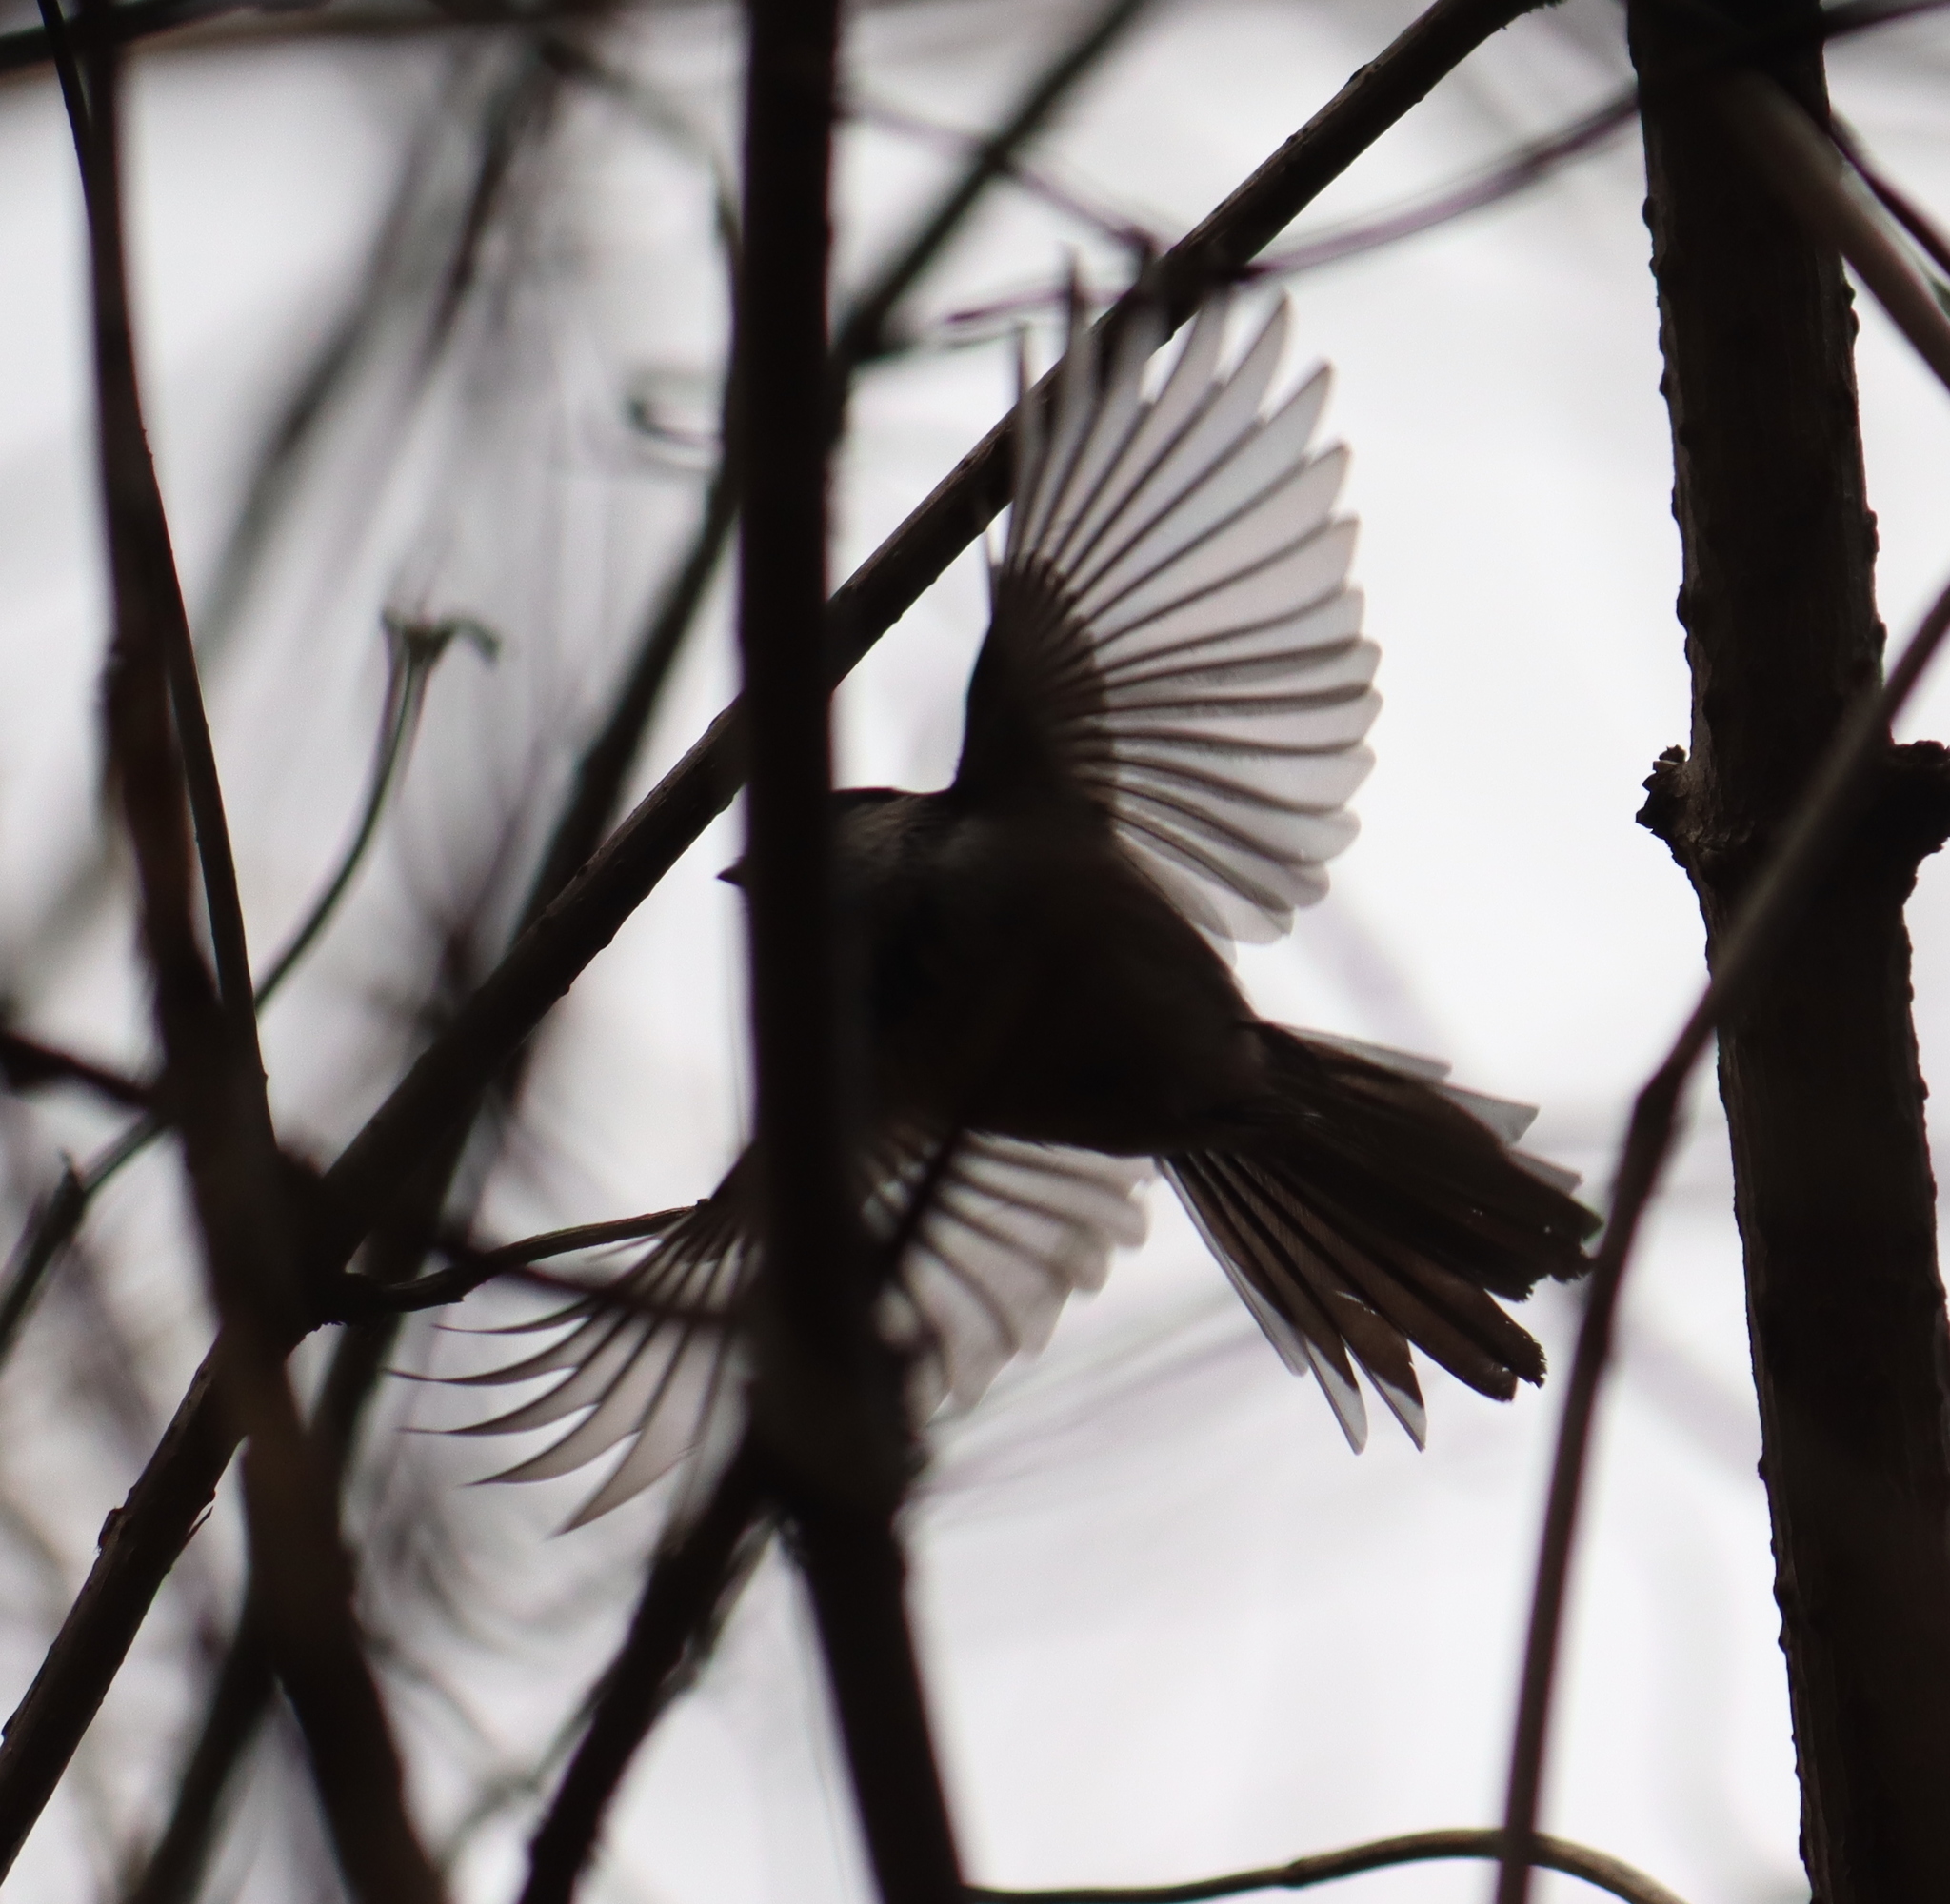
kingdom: Animalia
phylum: Chordata
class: Aves
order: Passeriformes
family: Aegithalidae
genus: Aegithalos
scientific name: Aegithalos caudatus
